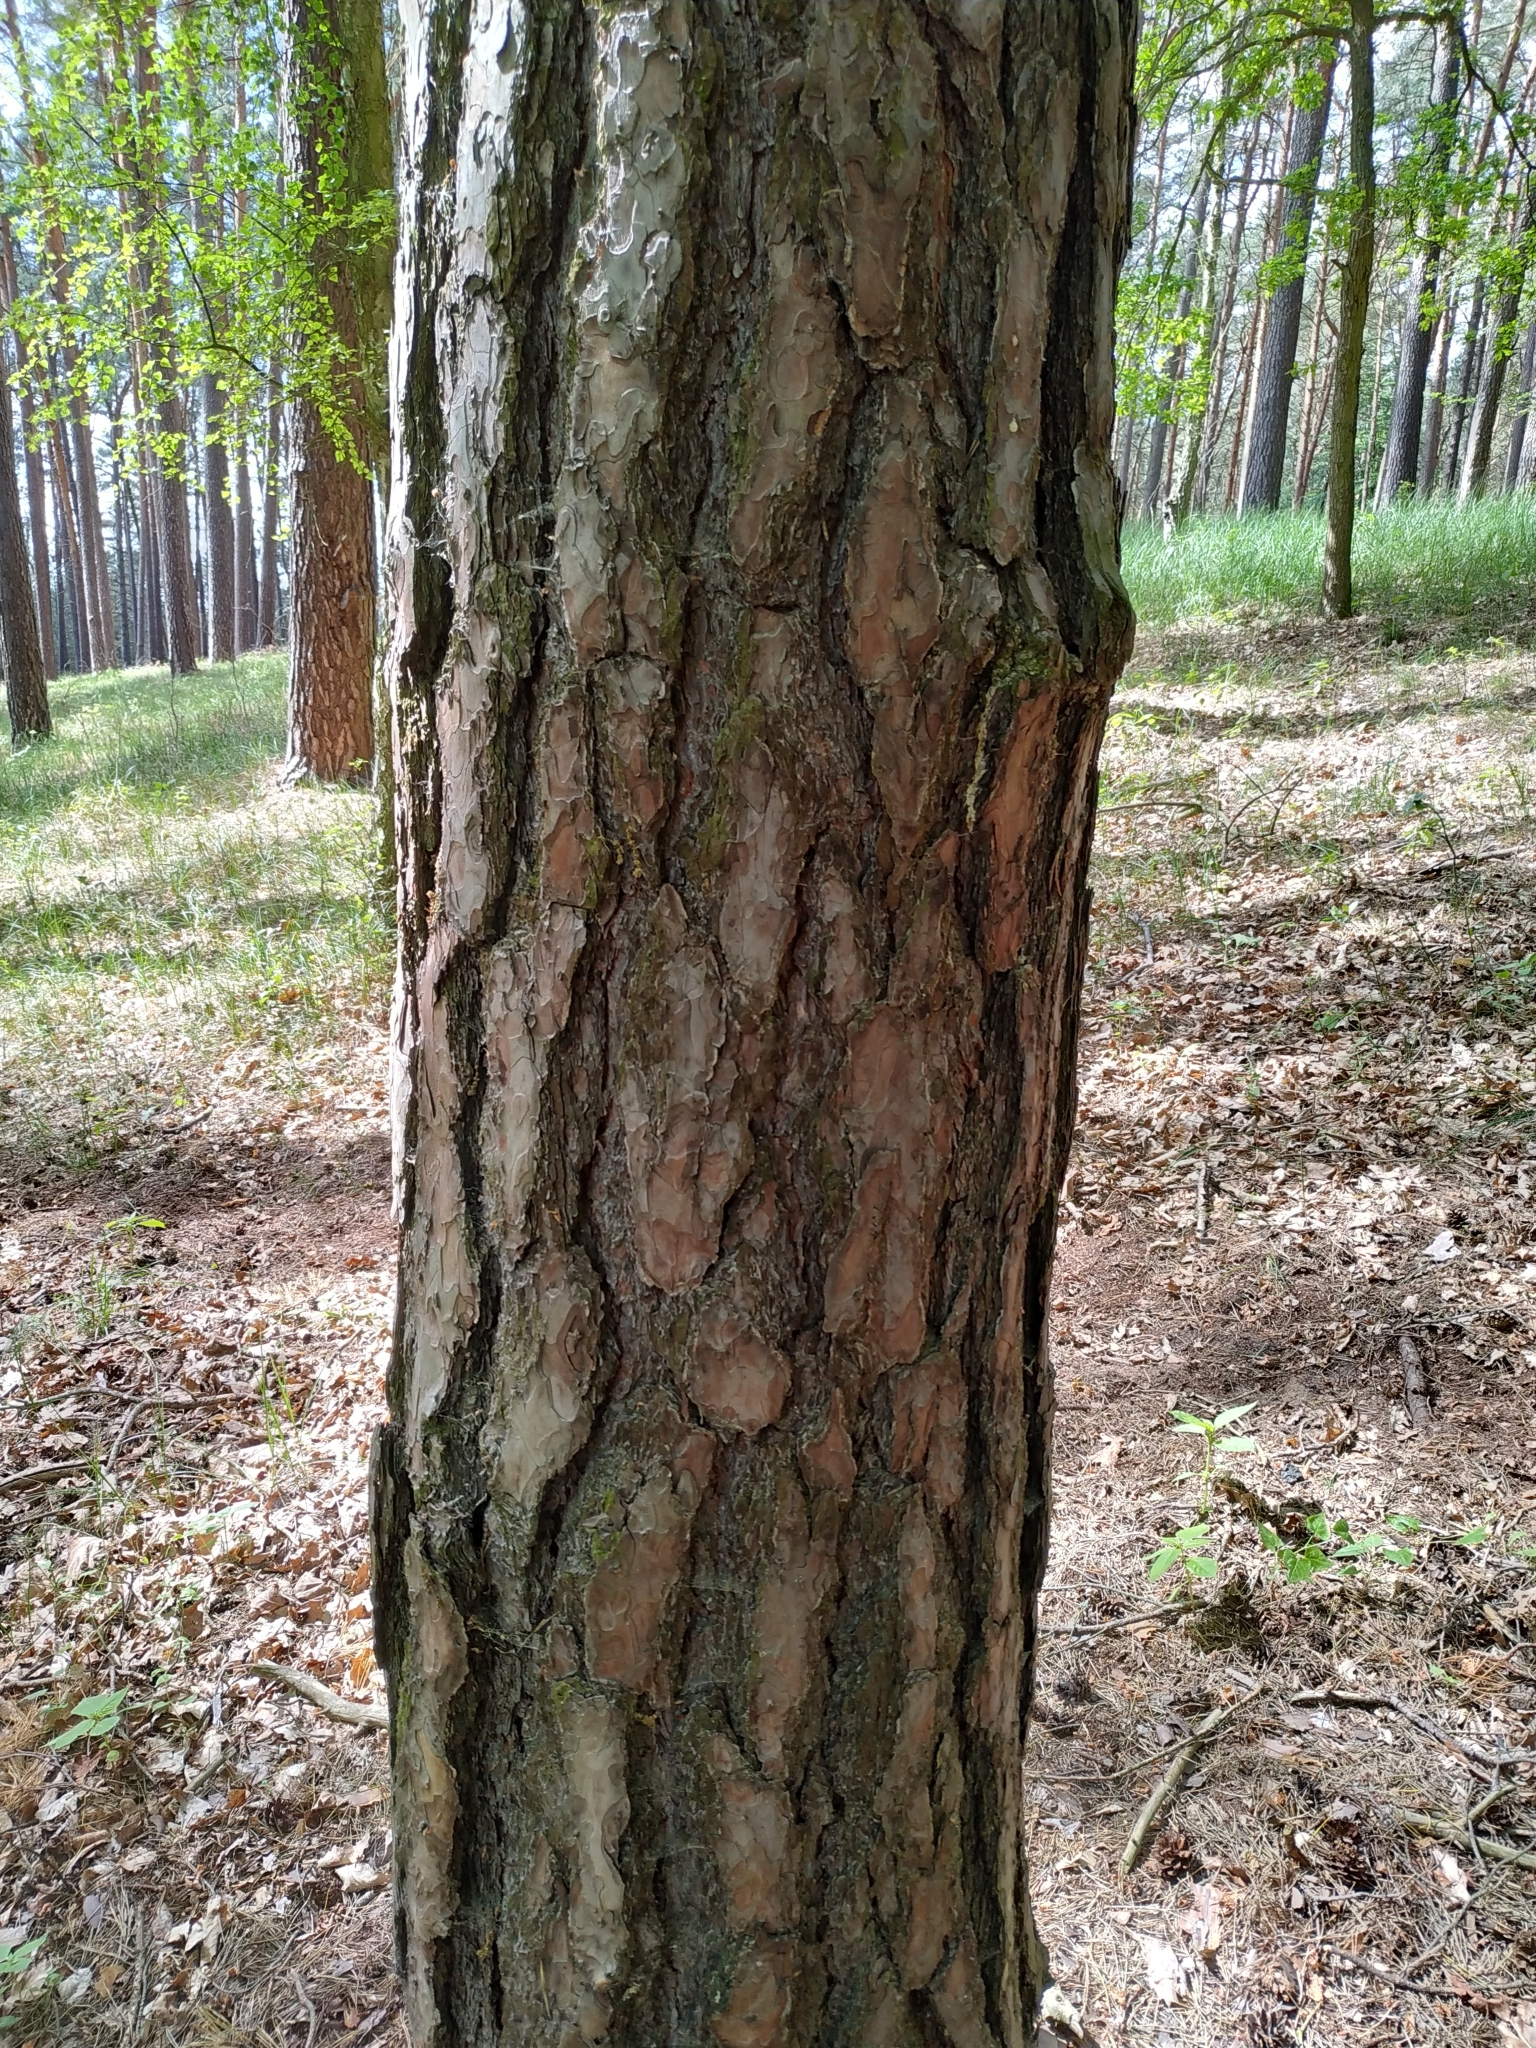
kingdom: Plantae
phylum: Tracheophyta
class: Pinopsida
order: Pinales
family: Pinaceae
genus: Pinus
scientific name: Pinus sylvestris
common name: Scots pine
